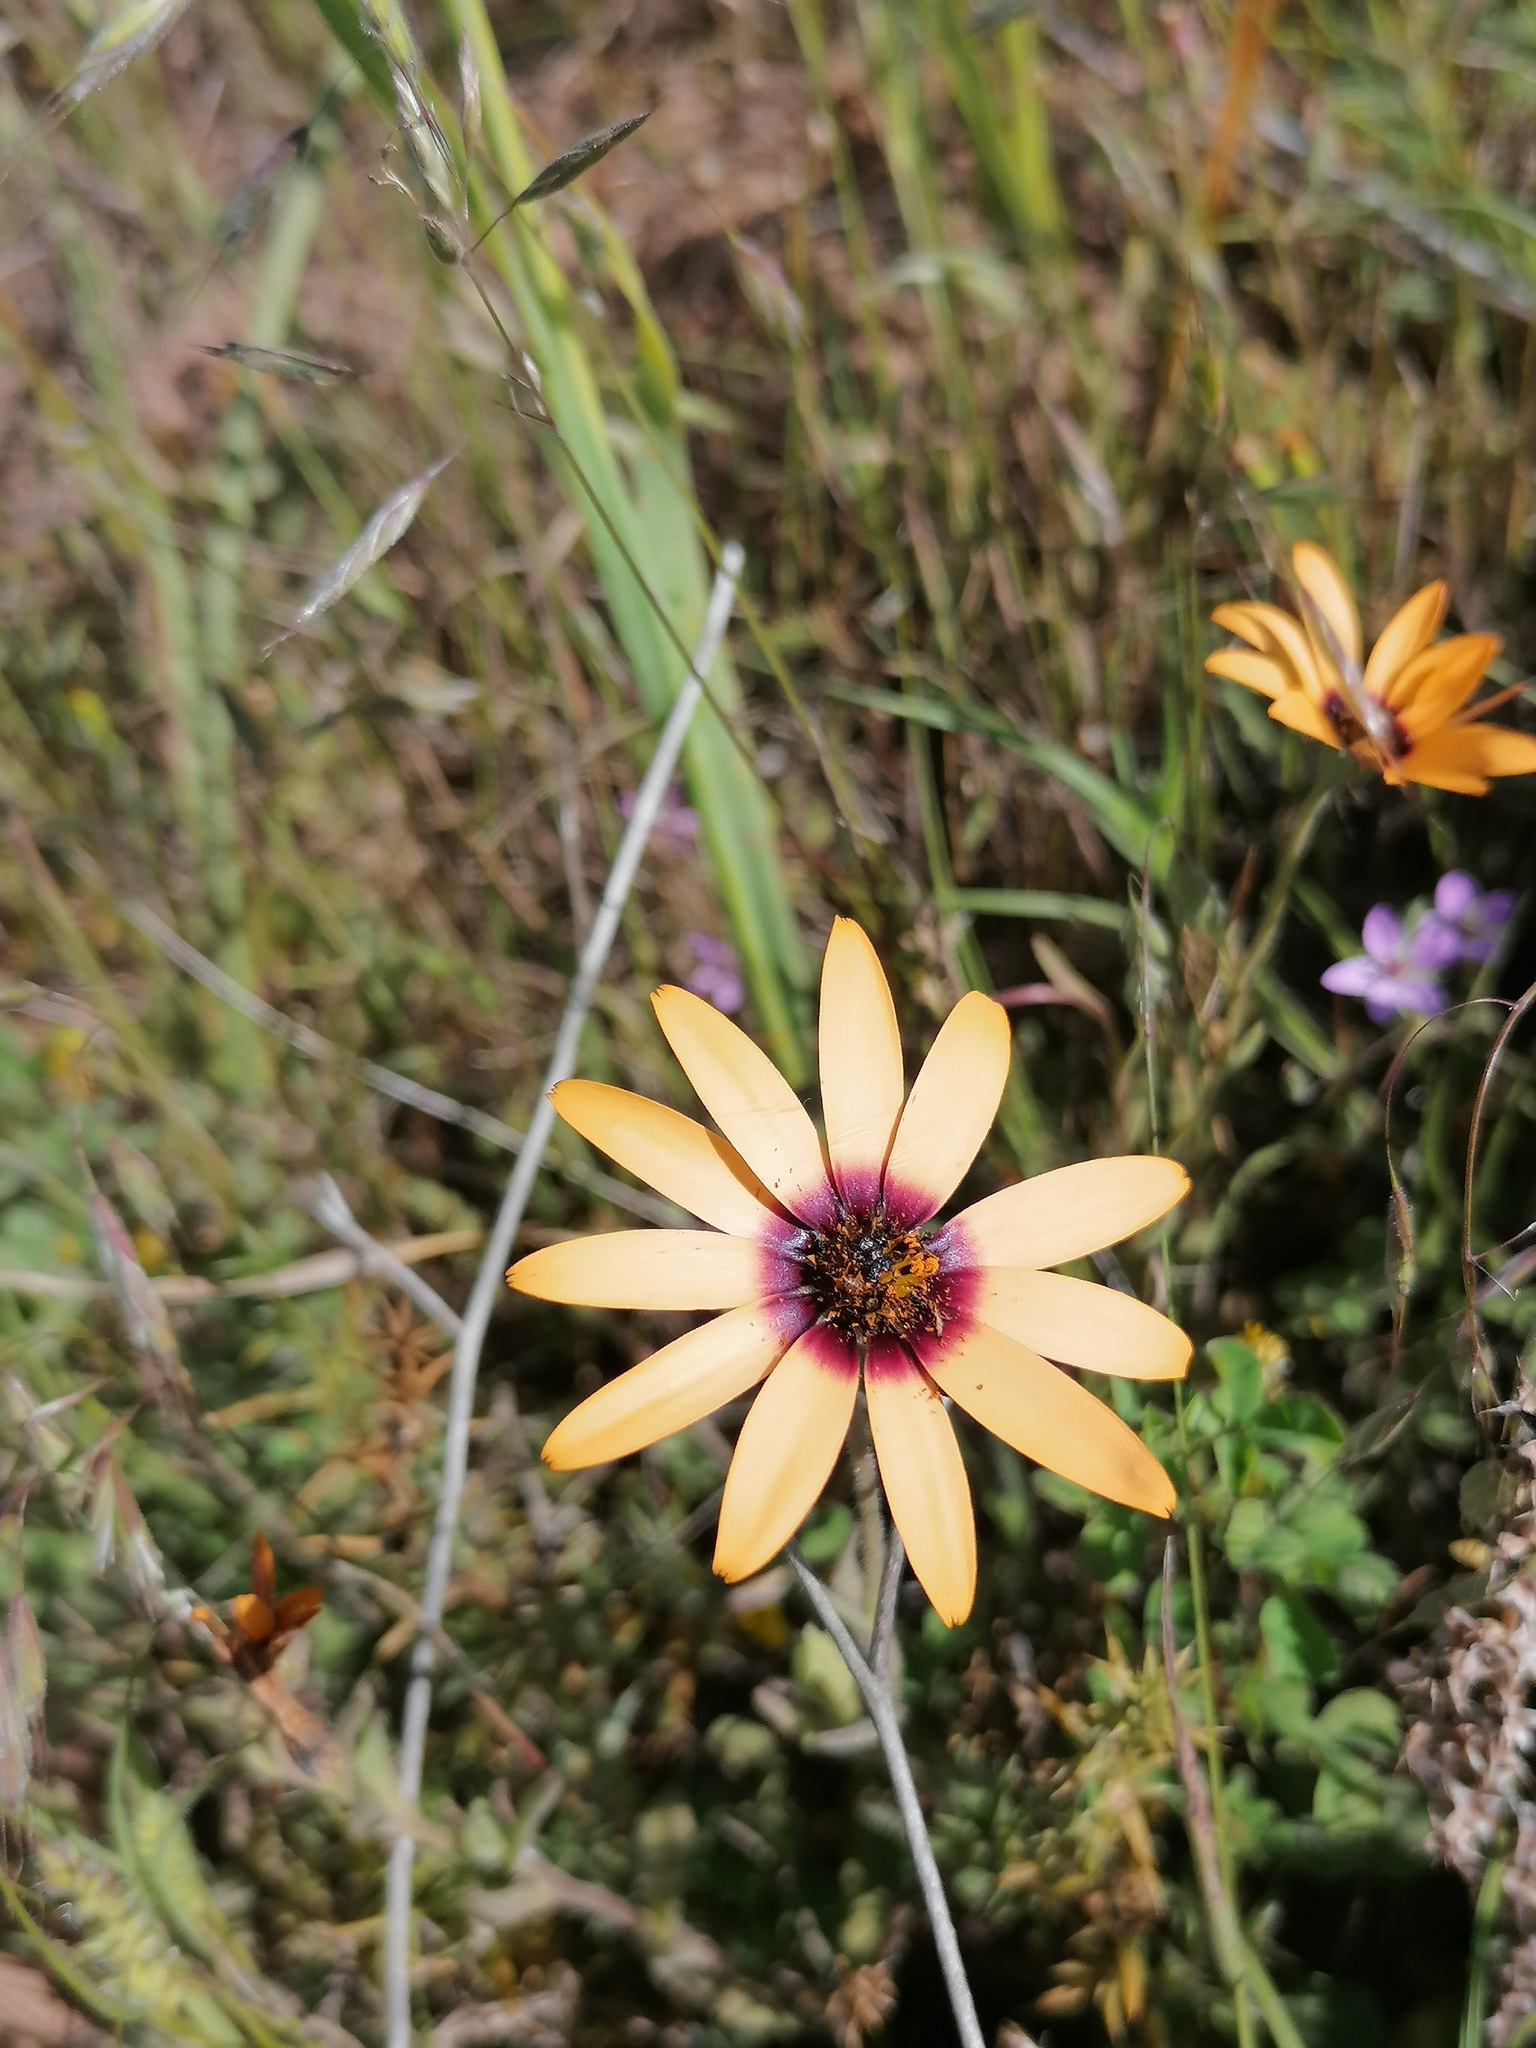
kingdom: Plantae
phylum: Tracheophyta
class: Magnoliopsida
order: Asterales
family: Asteraceae
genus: Dimorphotheca
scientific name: Dimorphotheca sinuata
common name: Glandular cape marigold
